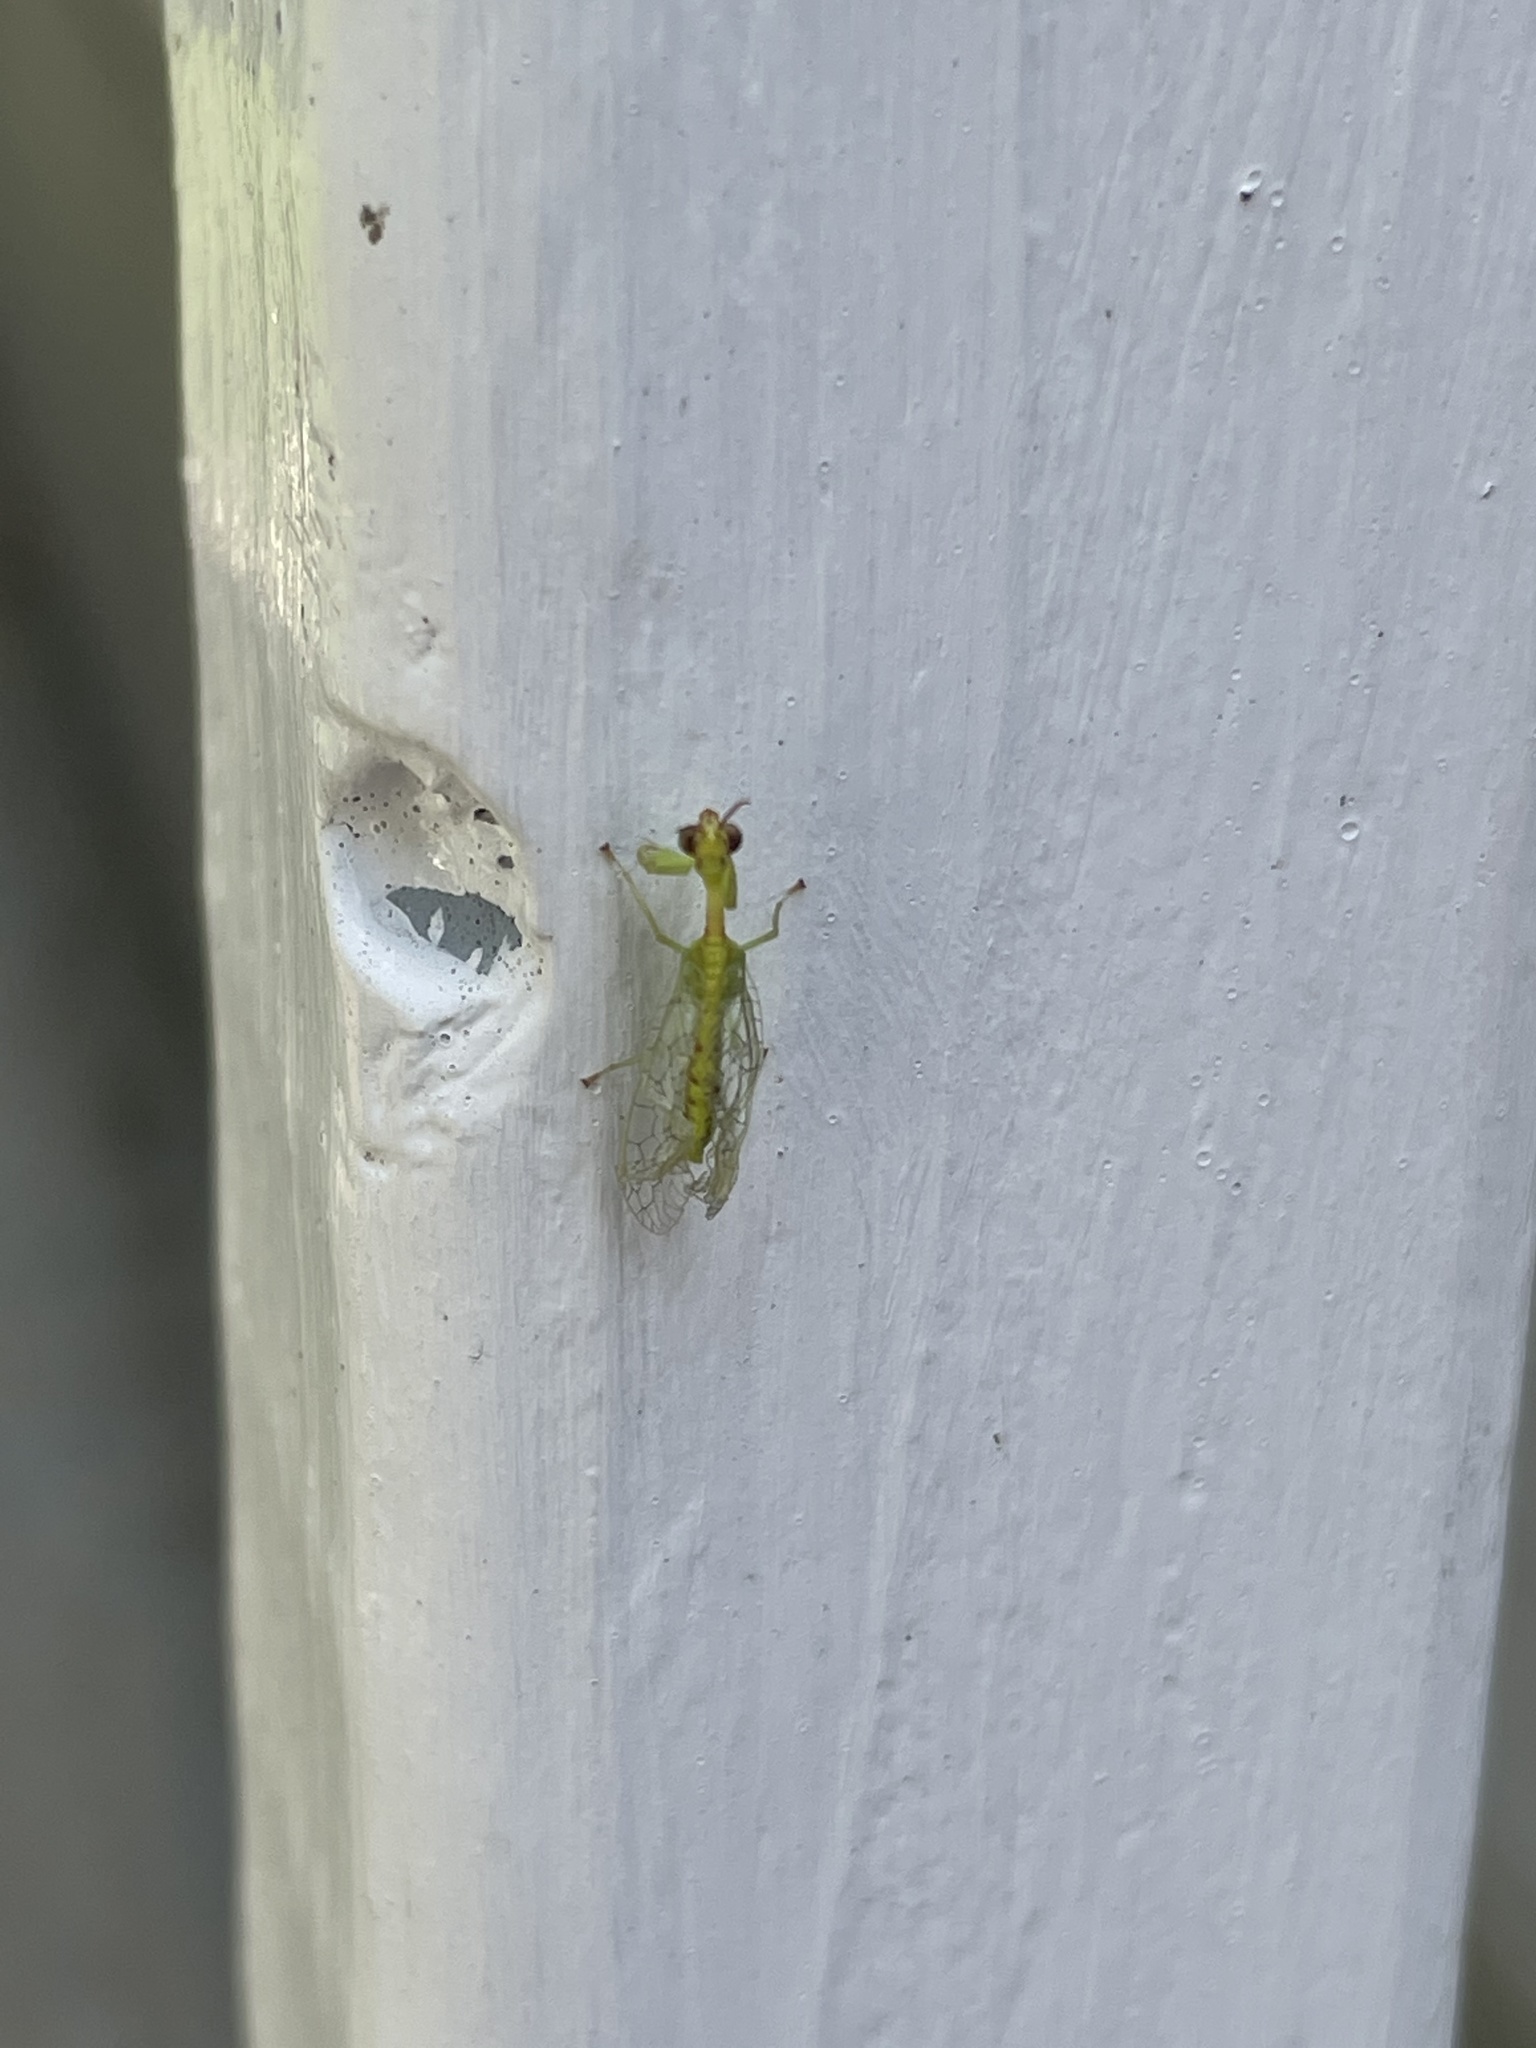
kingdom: Animalia
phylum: Arthropoda
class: Insecta
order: Neuroptera
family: Mantispidae
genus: Zeugomantispa
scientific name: Zeugomantispa minuta
